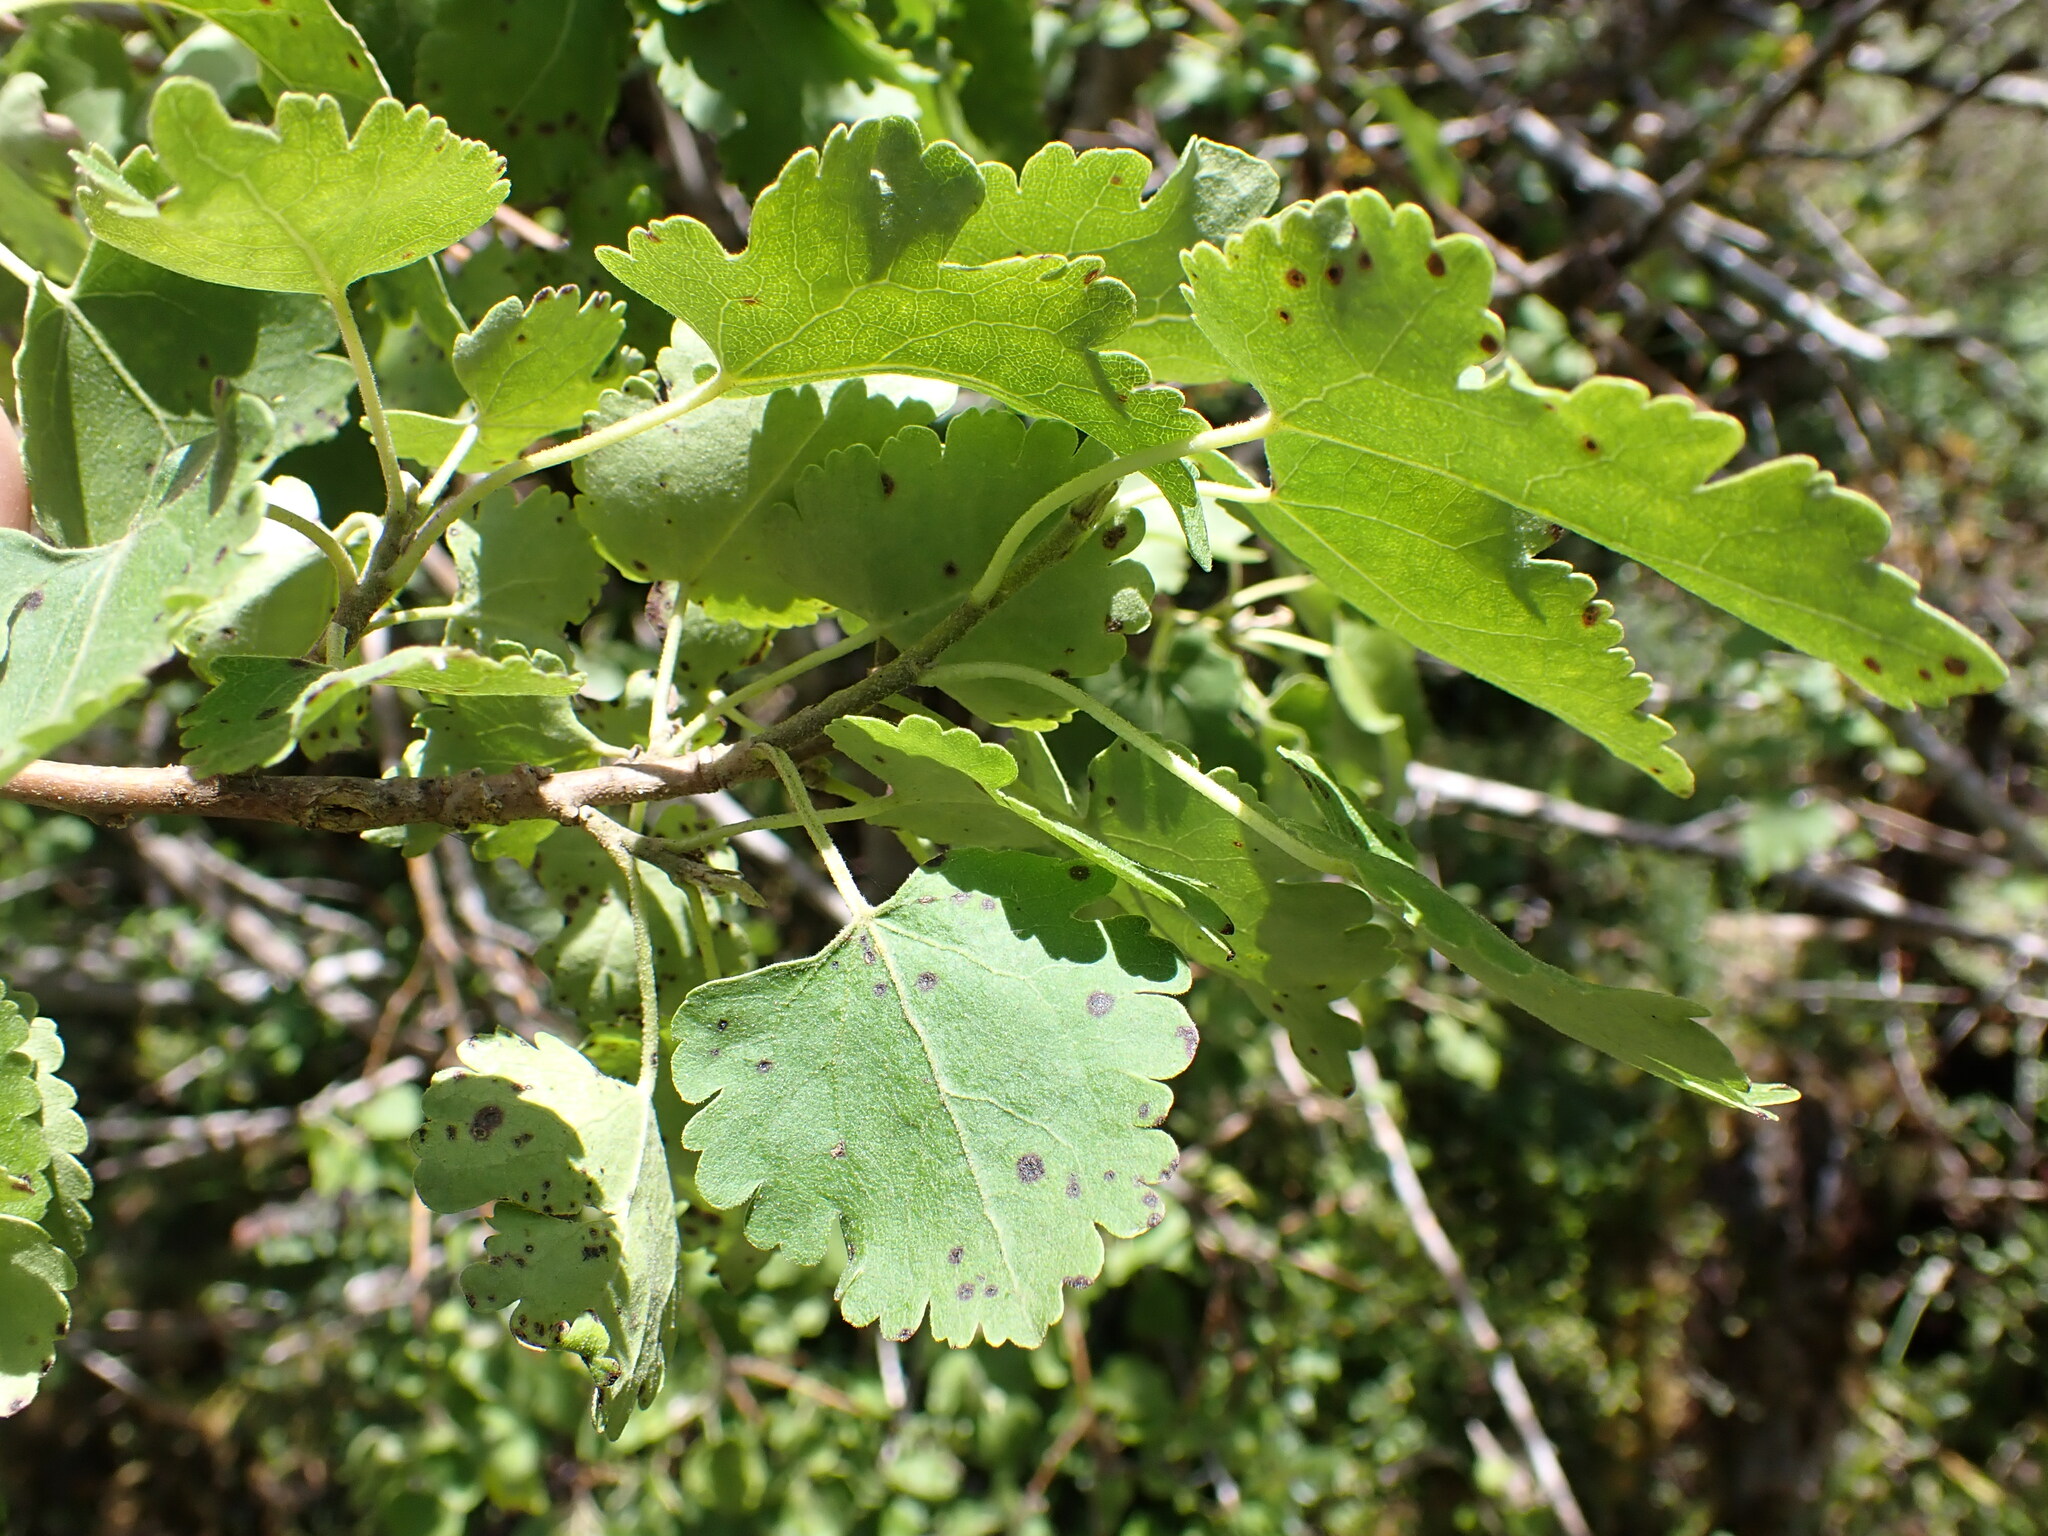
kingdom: Plantae
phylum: Tracheophyta
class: Magnoliopsida
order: Malvales
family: Malvaceae
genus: Hoheria
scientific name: Hoheria lyallii
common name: Lacebark
